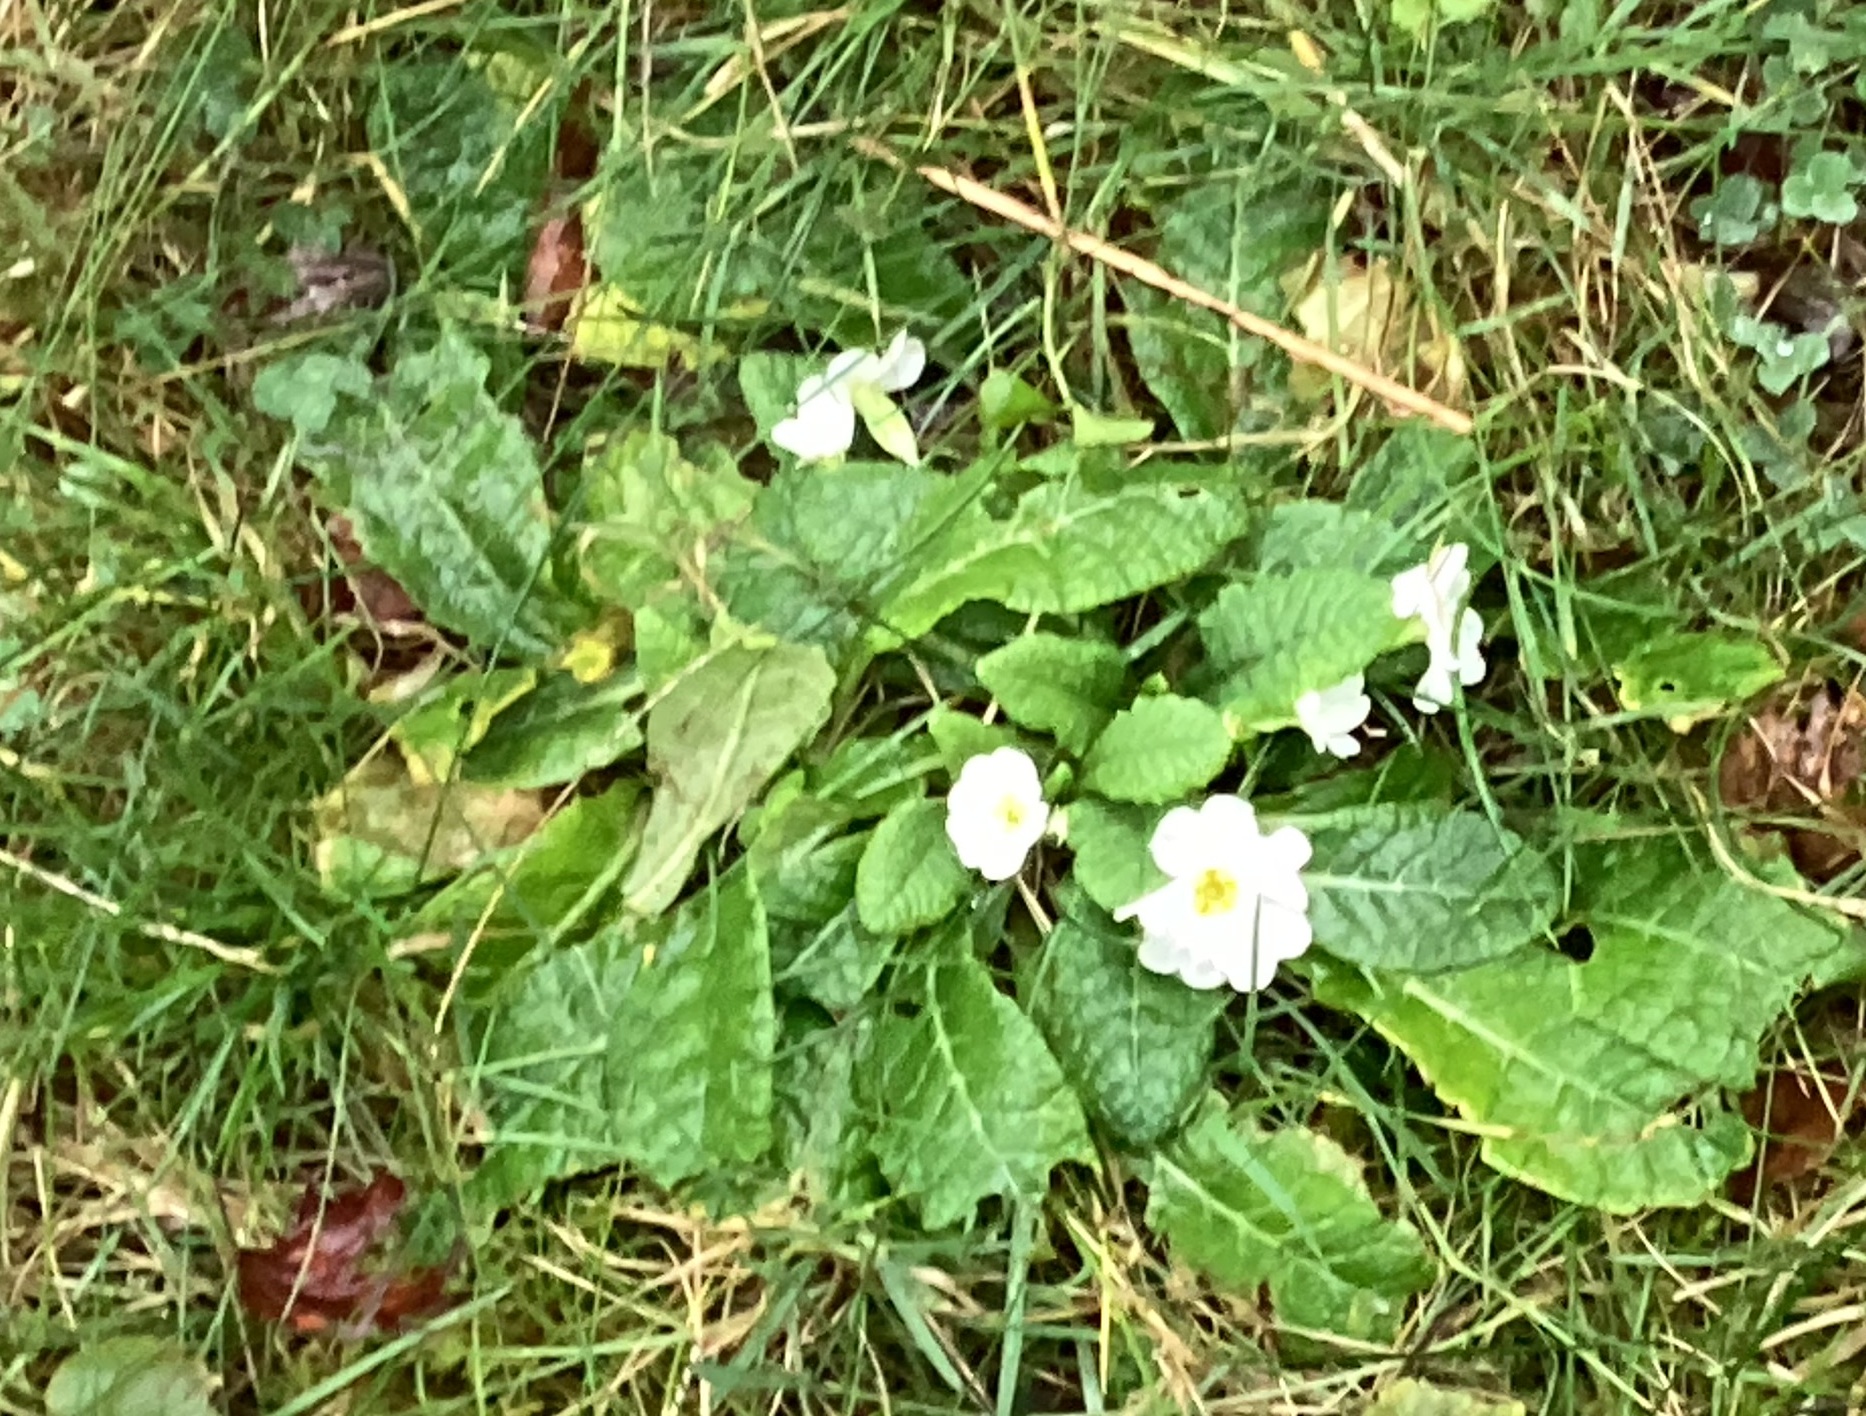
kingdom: Plantae
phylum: Tracheophyta
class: Magnoliopsida
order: Ericales
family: Primulaceae
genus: Primula
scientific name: Primula vulgaris
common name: Primrose
